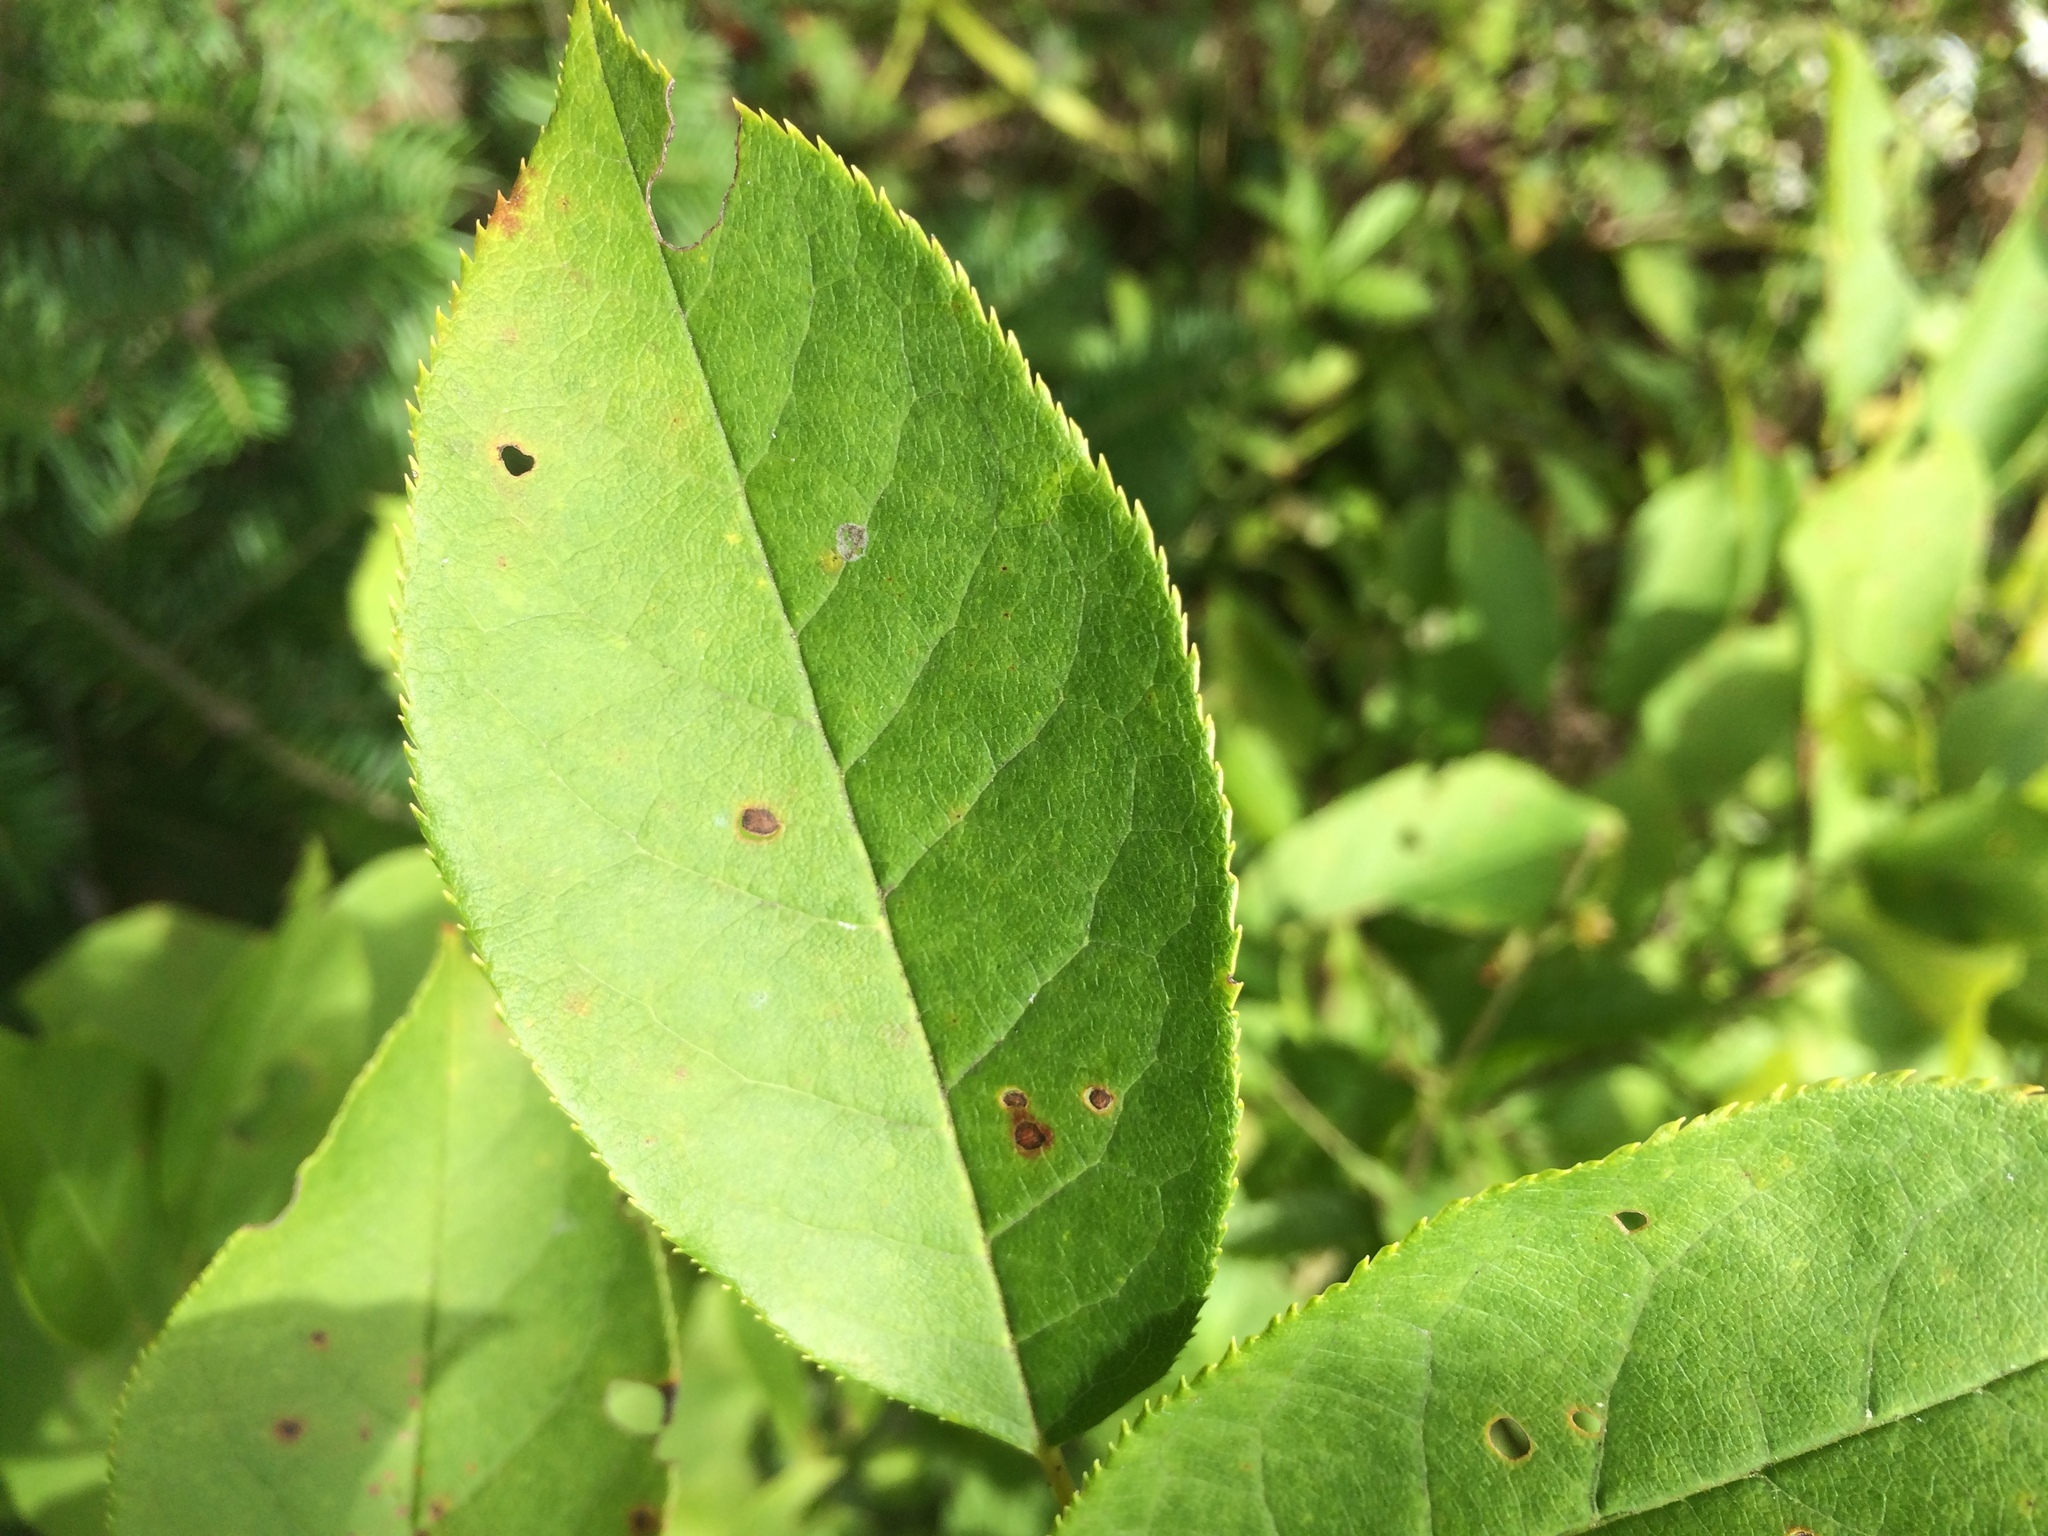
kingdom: Plantae
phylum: Tracheophyta
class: Magnoliopsida
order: Rosales
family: Rosaceae
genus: Prunus
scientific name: Prunus virginiana
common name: Chokecherry
